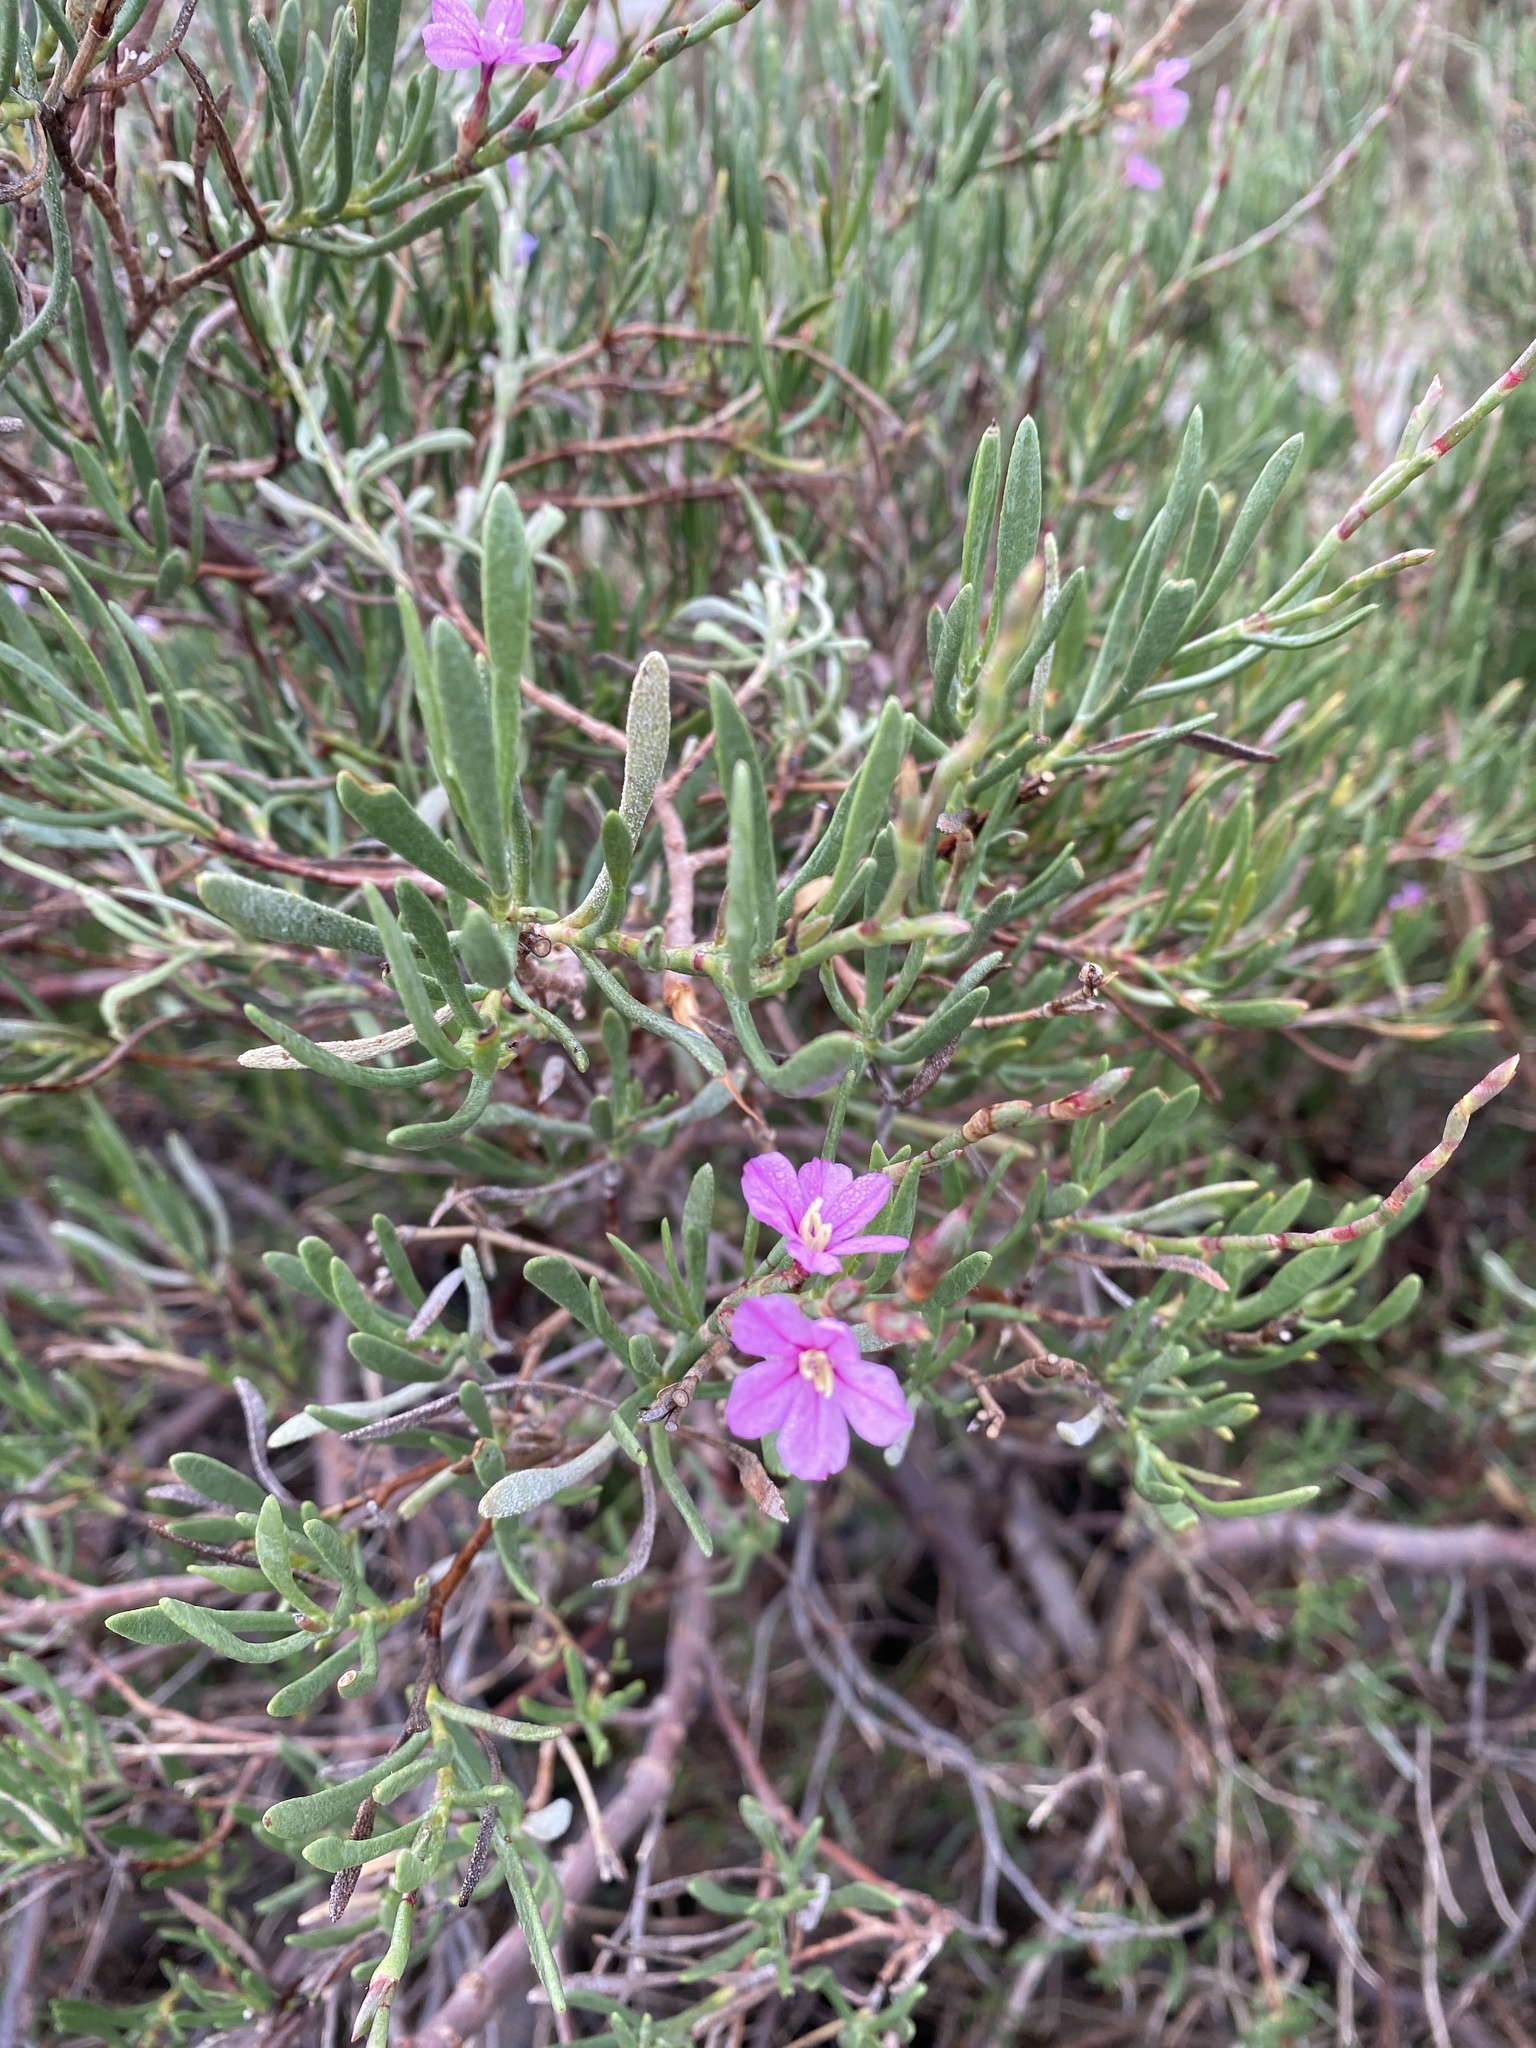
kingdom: Plantae
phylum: Tracheophyta
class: Magnoliopsida
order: Caryophyllales
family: Plumbaginaceae
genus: Limoniastrum
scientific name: Limoniastrum monopetalum
